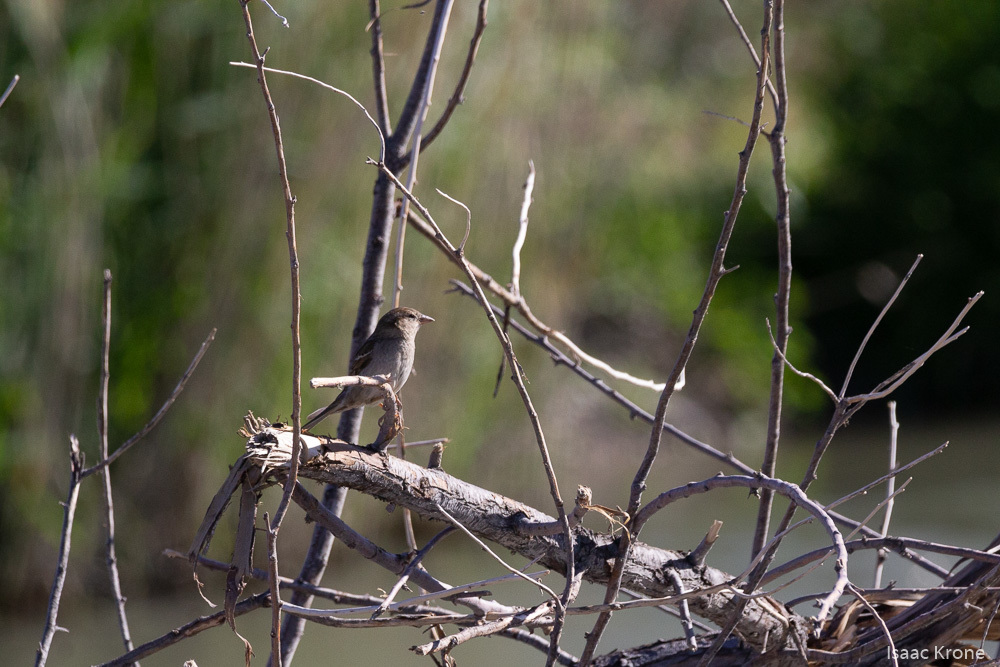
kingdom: Animalia
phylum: Chordata
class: Aves
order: Passeriformes
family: Passeridae
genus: Passer
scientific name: Passer domesticus
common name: House sparrow
